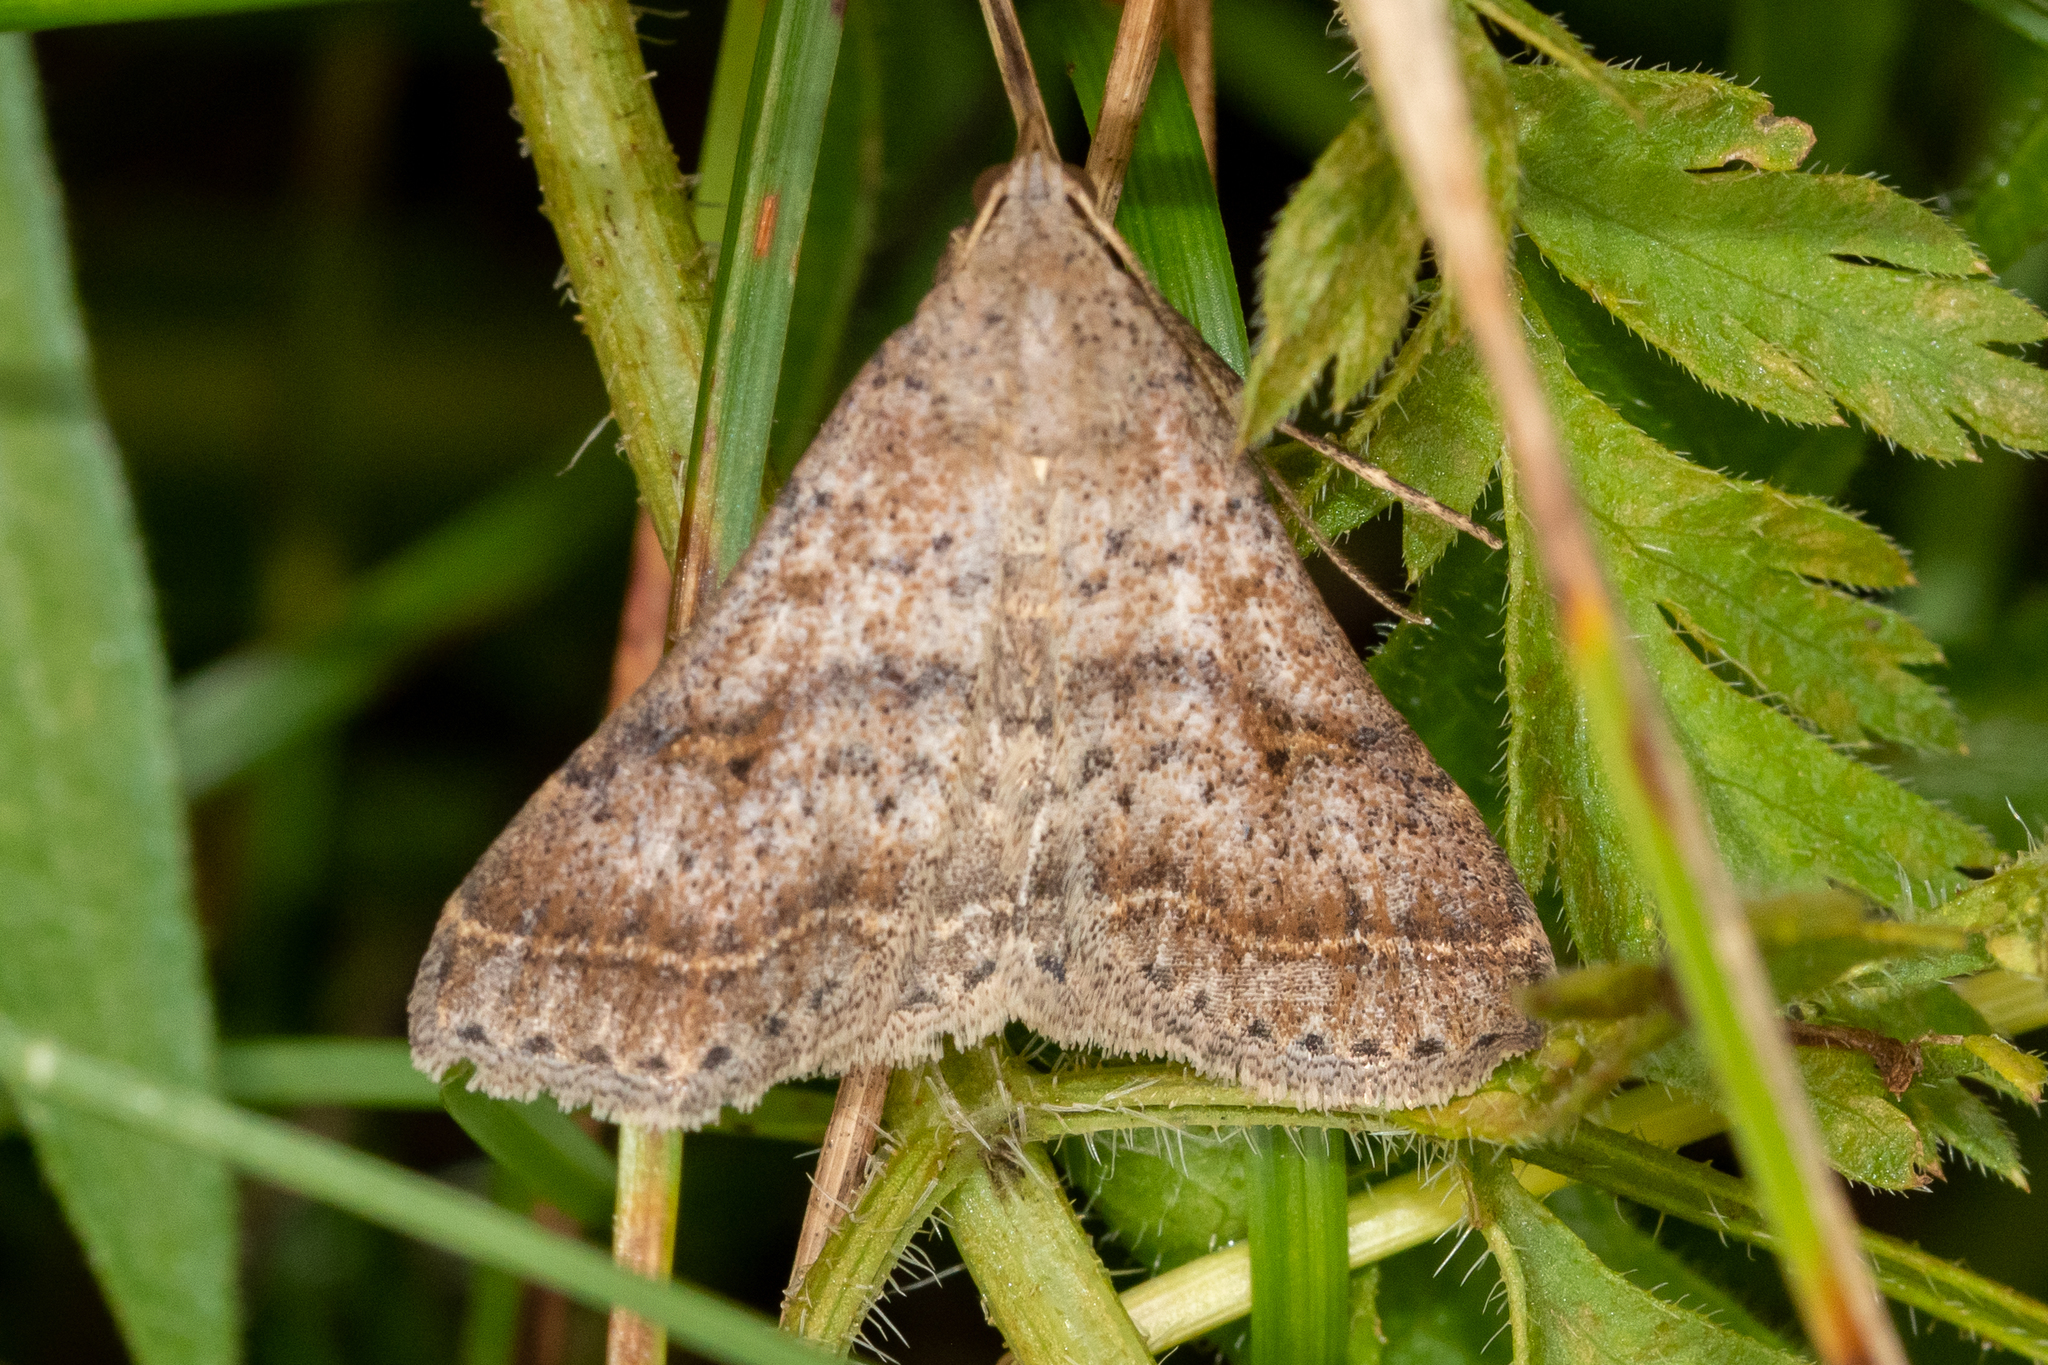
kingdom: Animalia
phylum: Arthropoda
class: Insecta
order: Lepidoptera
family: Erebidae
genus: Bleptina
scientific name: Bleptina caradrinalis
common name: Bent-winged owlet
